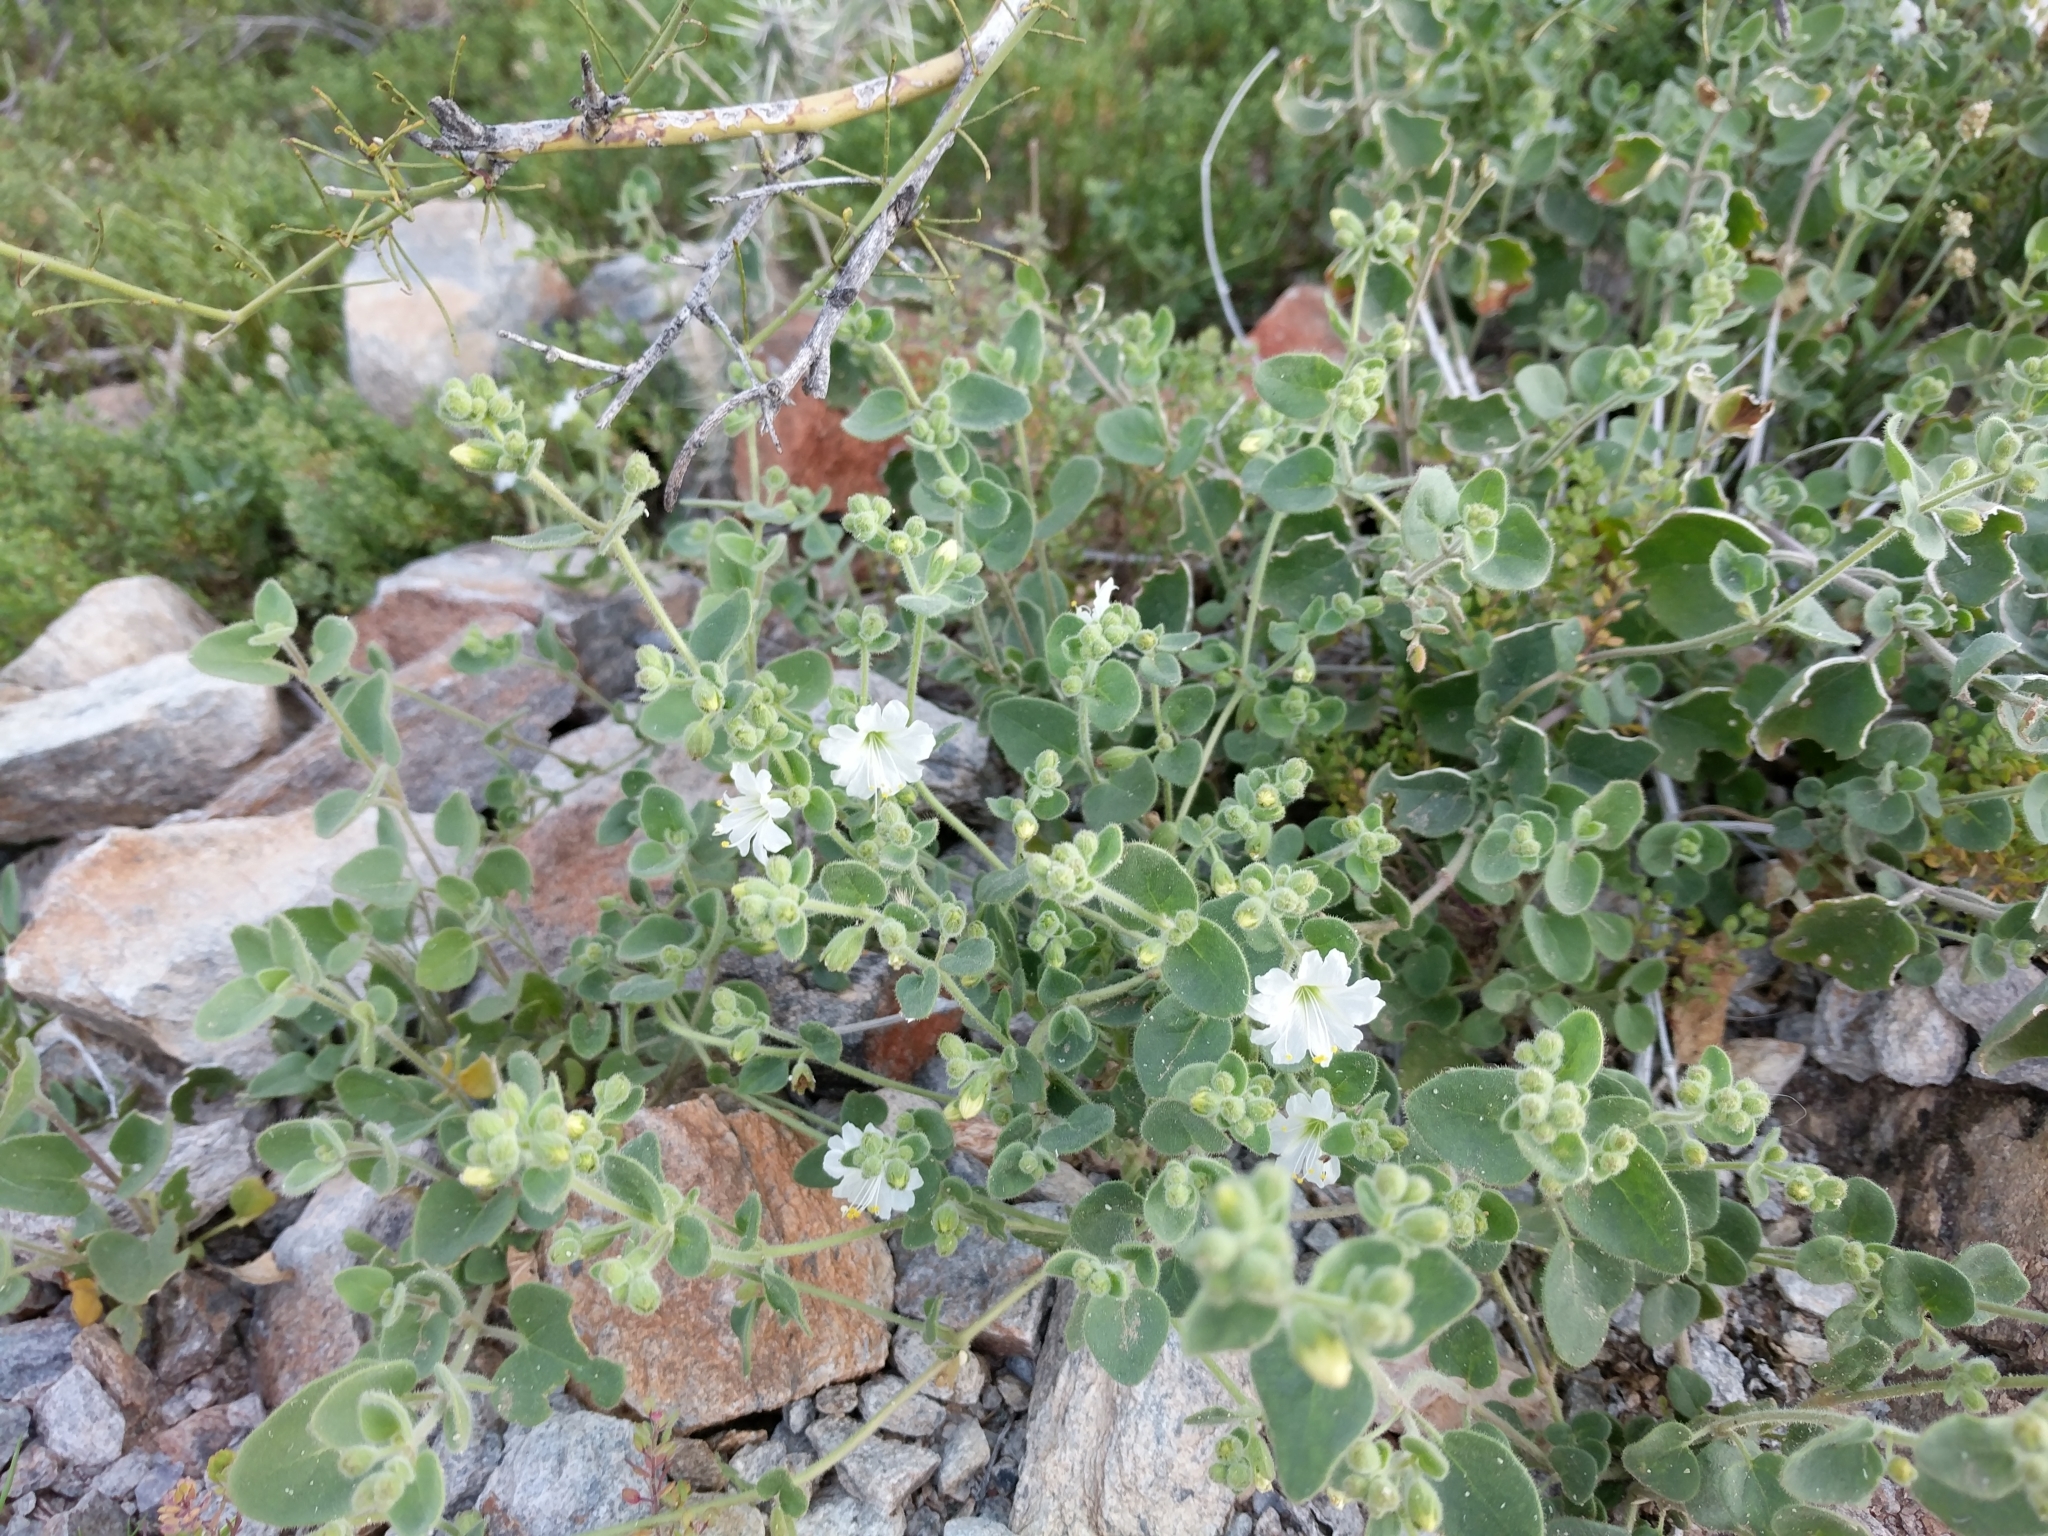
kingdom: Plantae
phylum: Tracheophyta
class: Magnoliopsida
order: Caryophyllales
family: Nyctaginaceae
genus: Mirabilis
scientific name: Mirabilis laevis
